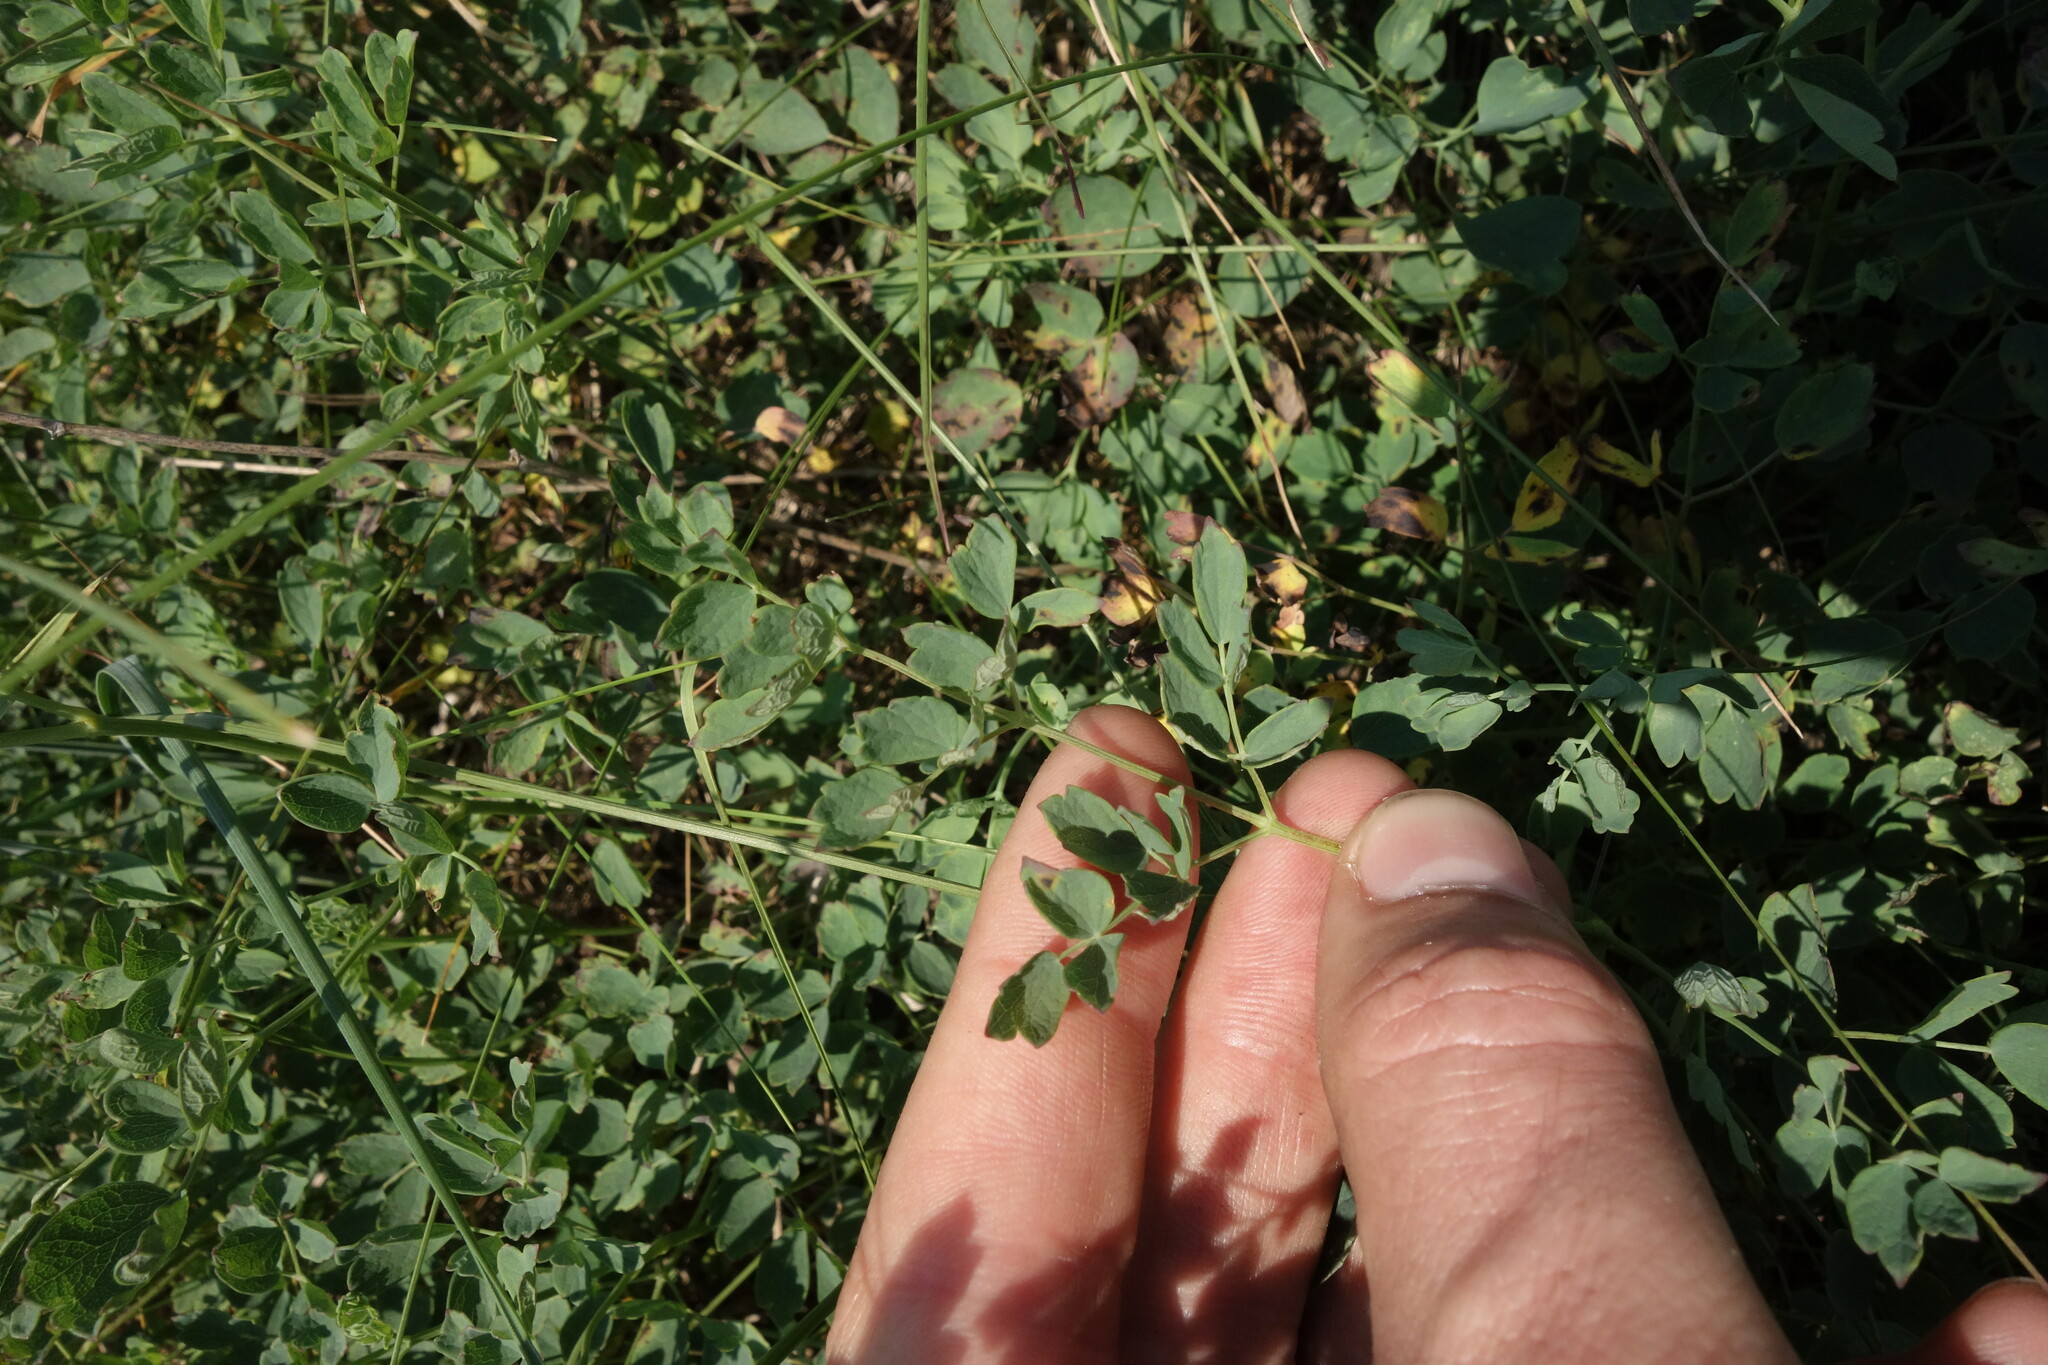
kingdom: Plantae
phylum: Tracheophyta
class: Magnoliopsida
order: Ranunculales
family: Ranunculaceae
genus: Thalictrum
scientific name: Thalictrum minus
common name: Lesser meadow-rue
